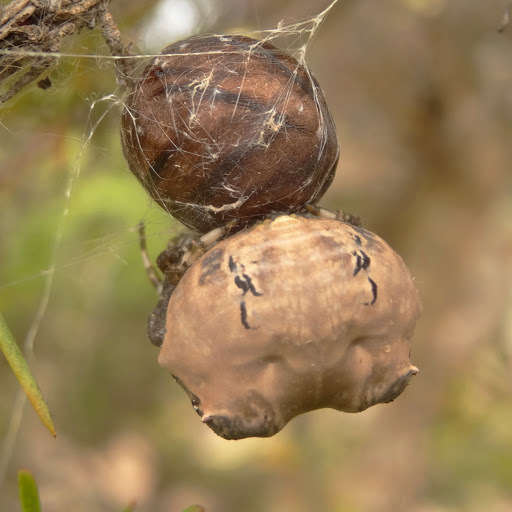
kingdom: Animalia
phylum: Arthropoda
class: Arachnida
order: Araneae
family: Araneidae
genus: Celaenia
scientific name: Celaenia excavata
